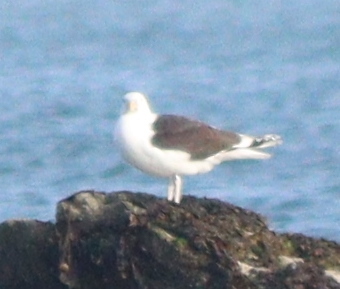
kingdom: Animalia
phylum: Chordata
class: Aves
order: Charadriiformes
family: Laridae
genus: Larus
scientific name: Larus marinus
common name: Great black-backed gull
